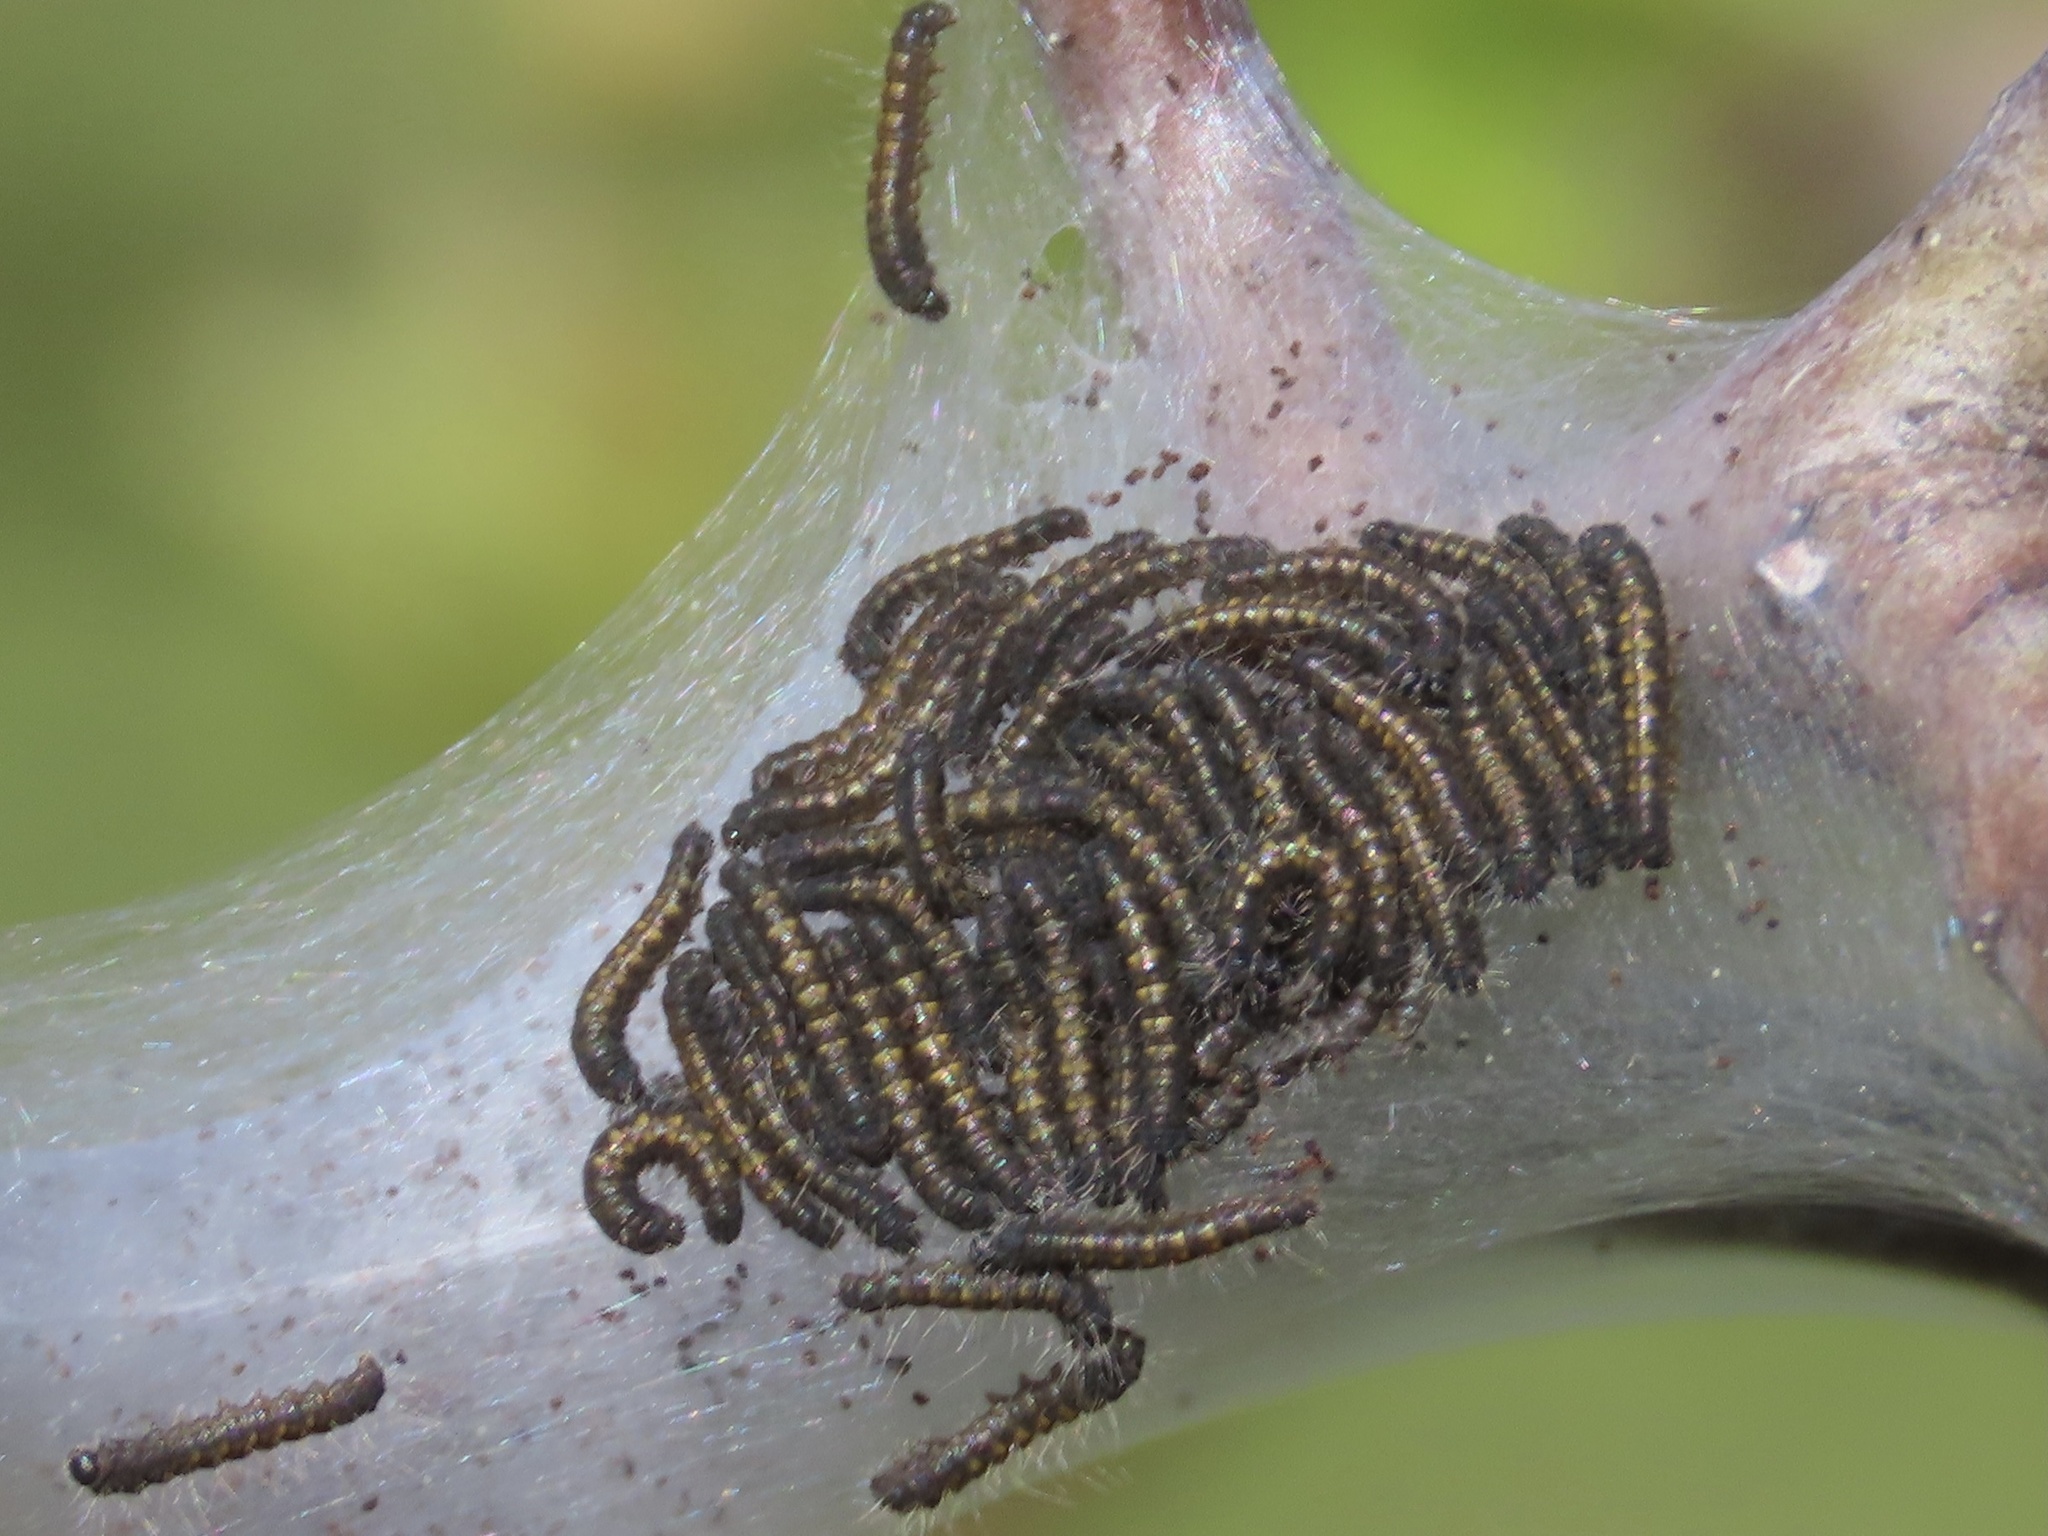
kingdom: Animalia
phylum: Arthropoda
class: Insecta
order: Lepidoptera
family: Lasiocampidae
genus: Malacosoma
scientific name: Malacosoma californica
